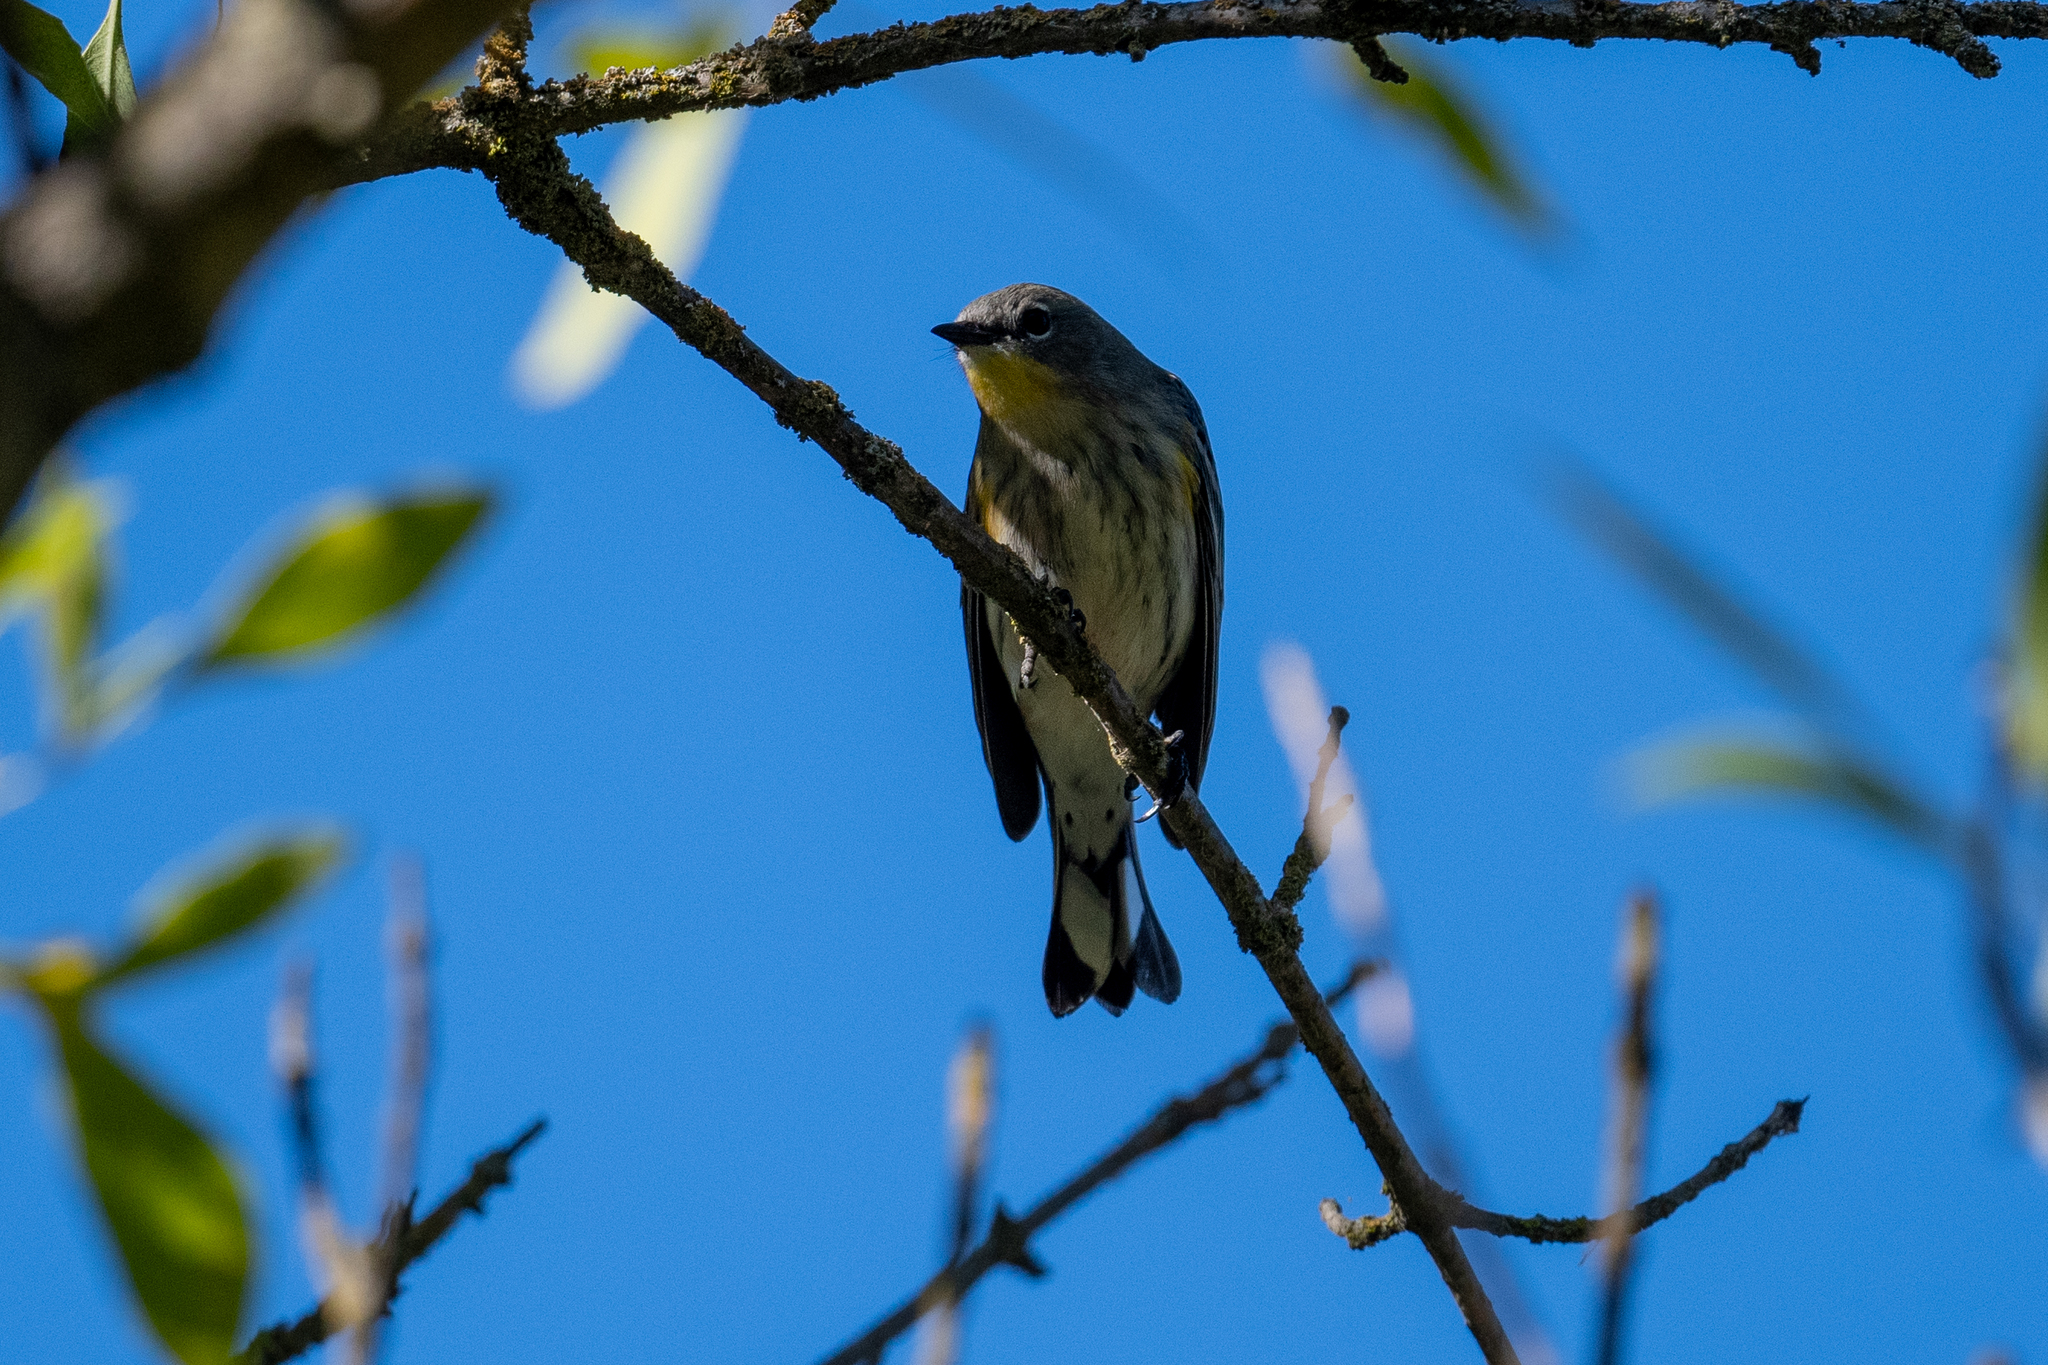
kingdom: Animalia
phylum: Chordata
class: Aves
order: Passeriformes
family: Parulidae
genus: Setophaga
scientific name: Setophaga coronata
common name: Myrtle warbler
